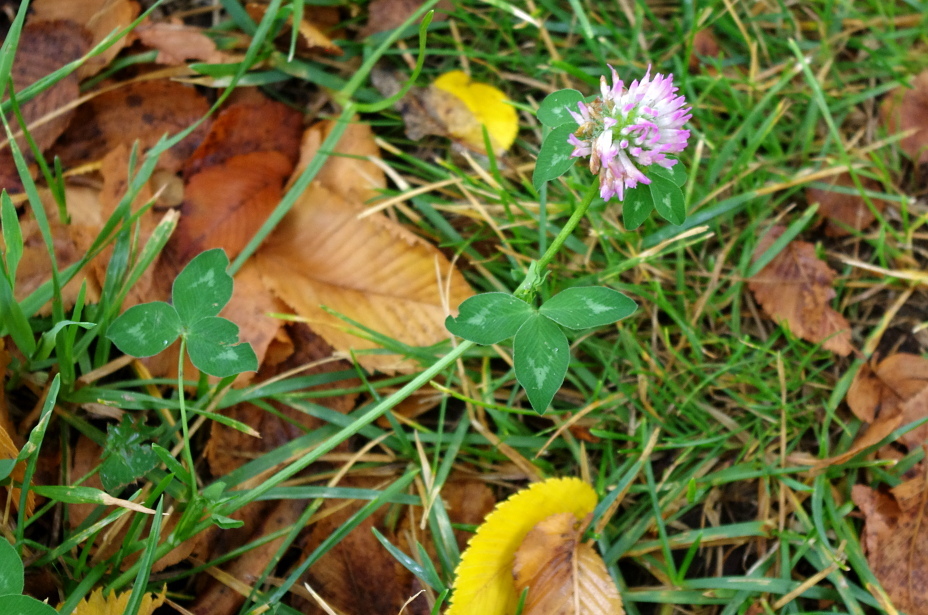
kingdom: Plantae
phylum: Tracheophyta
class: Magnoliopsida
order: Fabales
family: Fabaceae
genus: Trifolium
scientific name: Trifolium pratense
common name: Red clover
